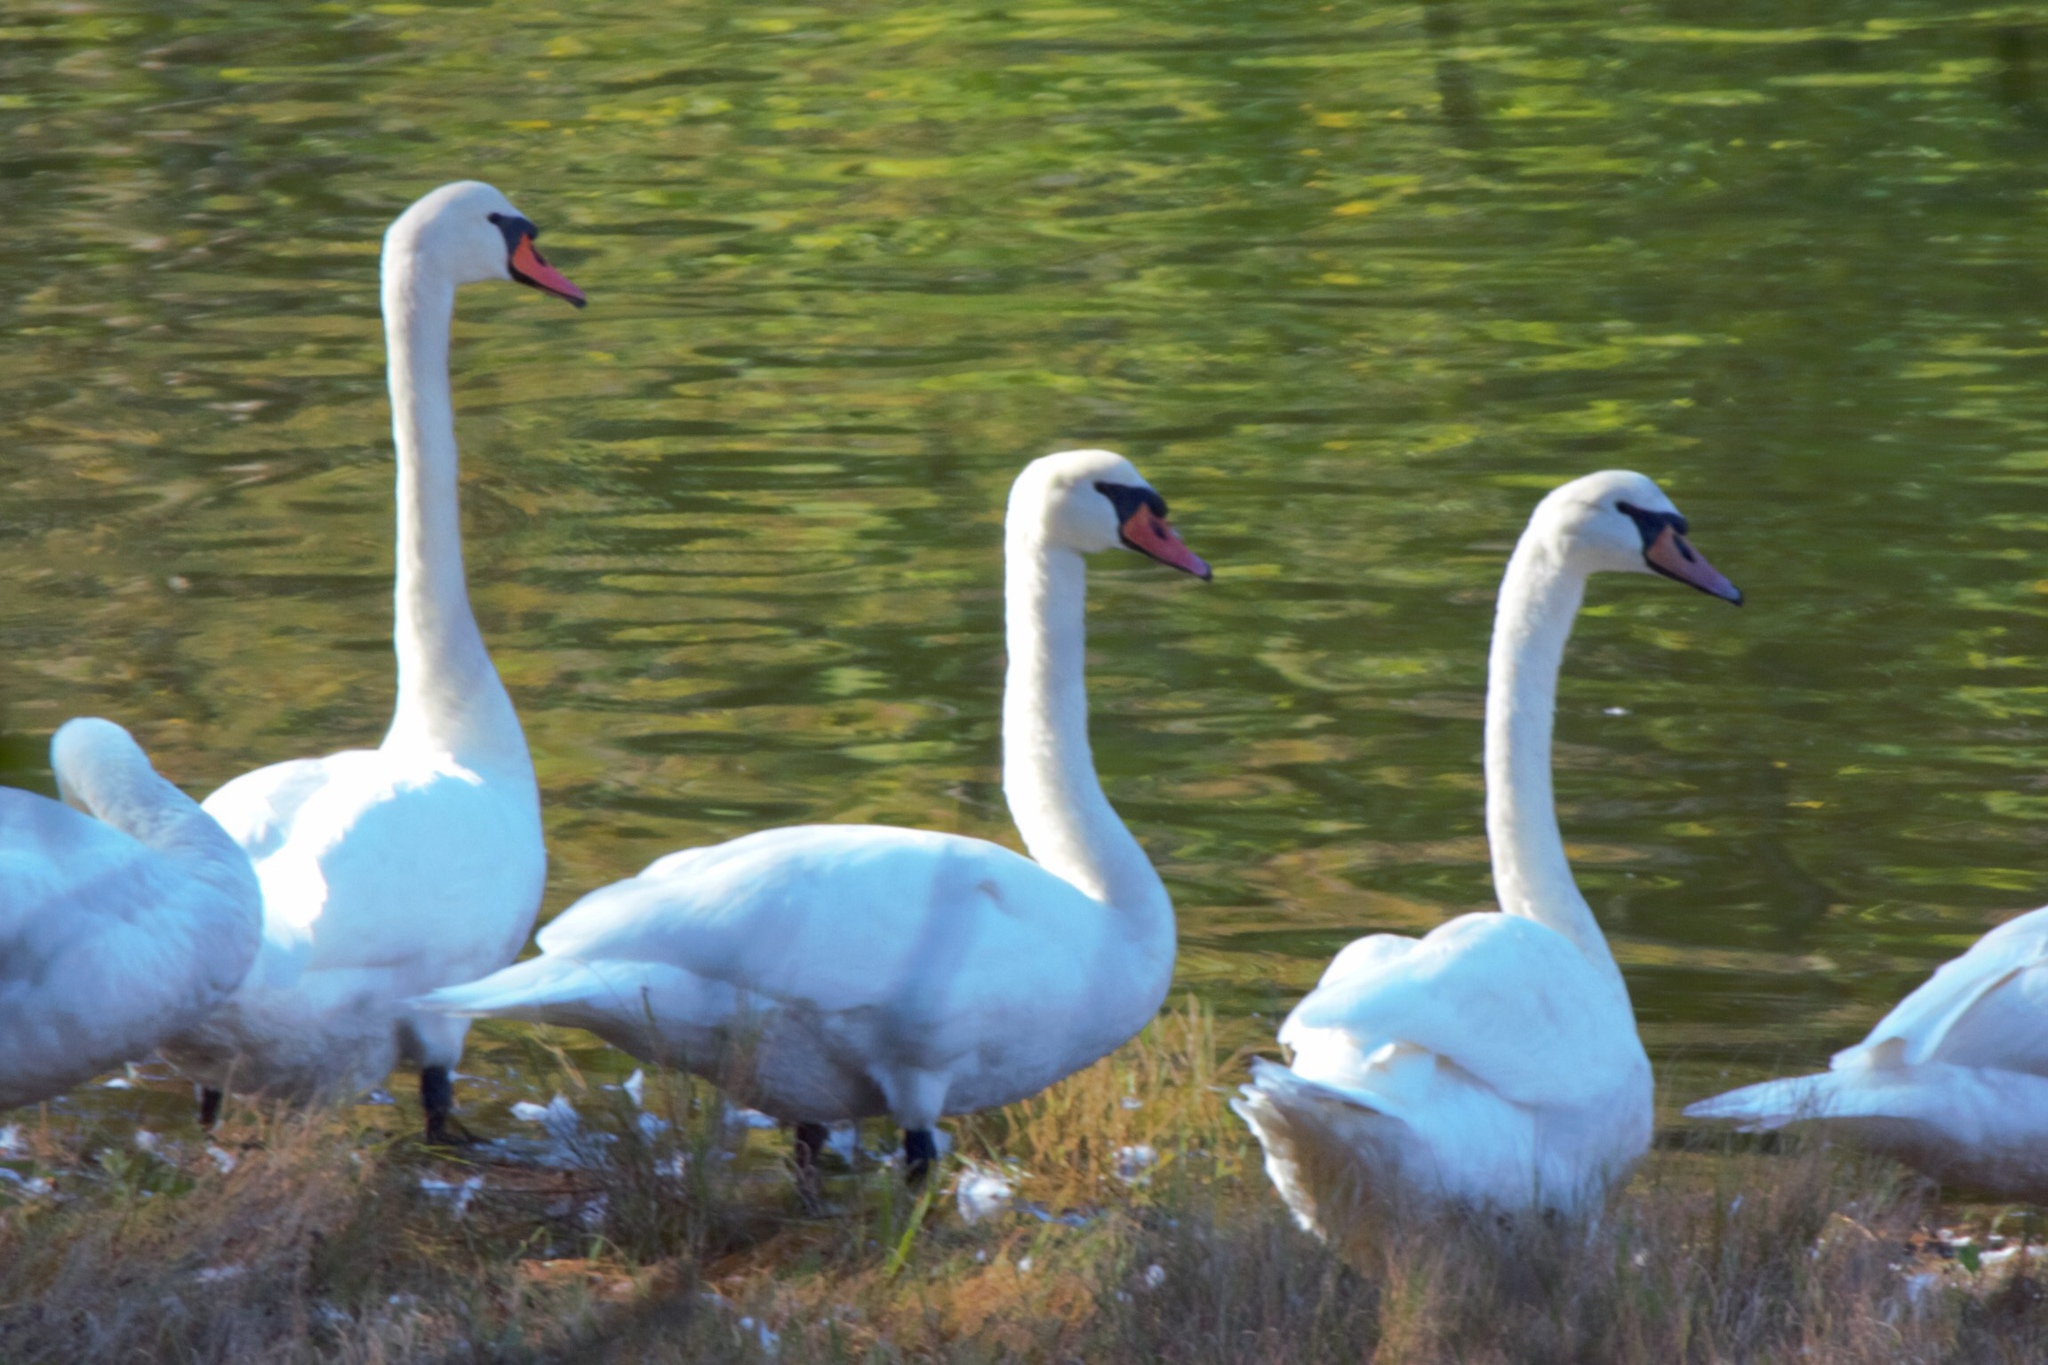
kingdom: Animalia
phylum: Chordata
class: Aves
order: Anseriformes
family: Anatidae
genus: Cygnus
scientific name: Cygnus olor
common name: Mute swan
